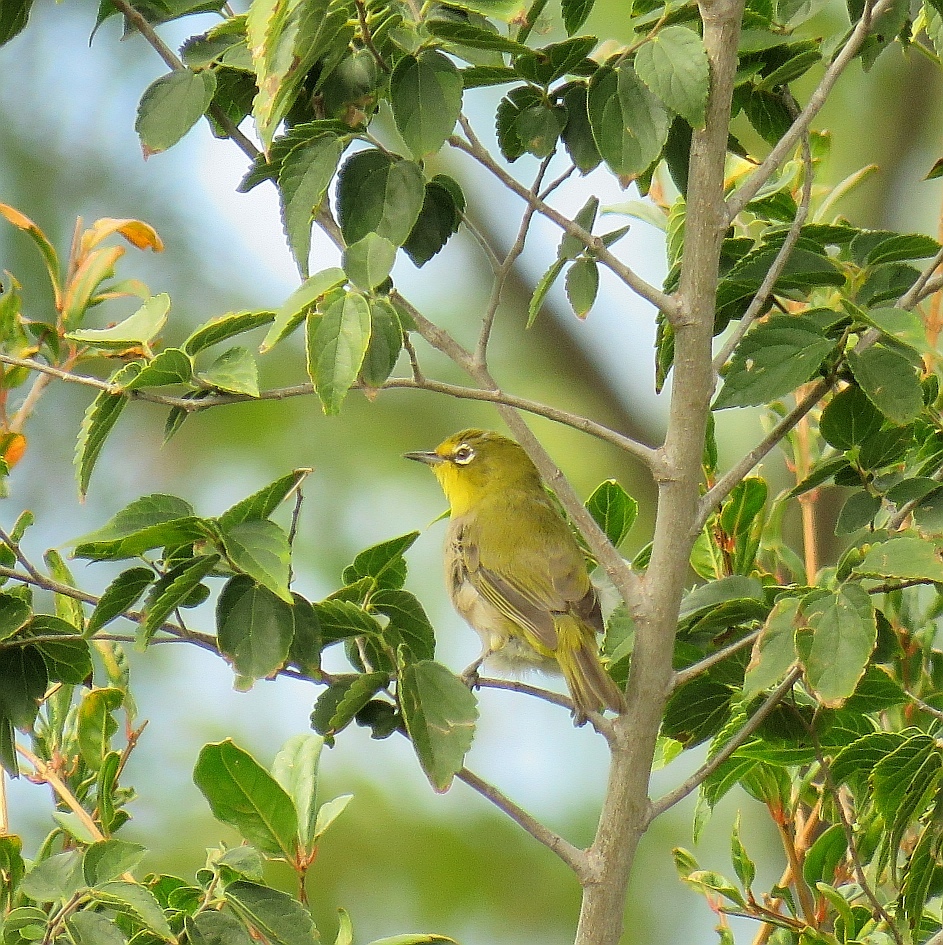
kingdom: Animalia
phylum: Chordata
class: Aves
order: Passeriformes
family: Zosteropidae
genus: Zosterops
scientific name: Zosterops virens
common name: Cape white-eye
